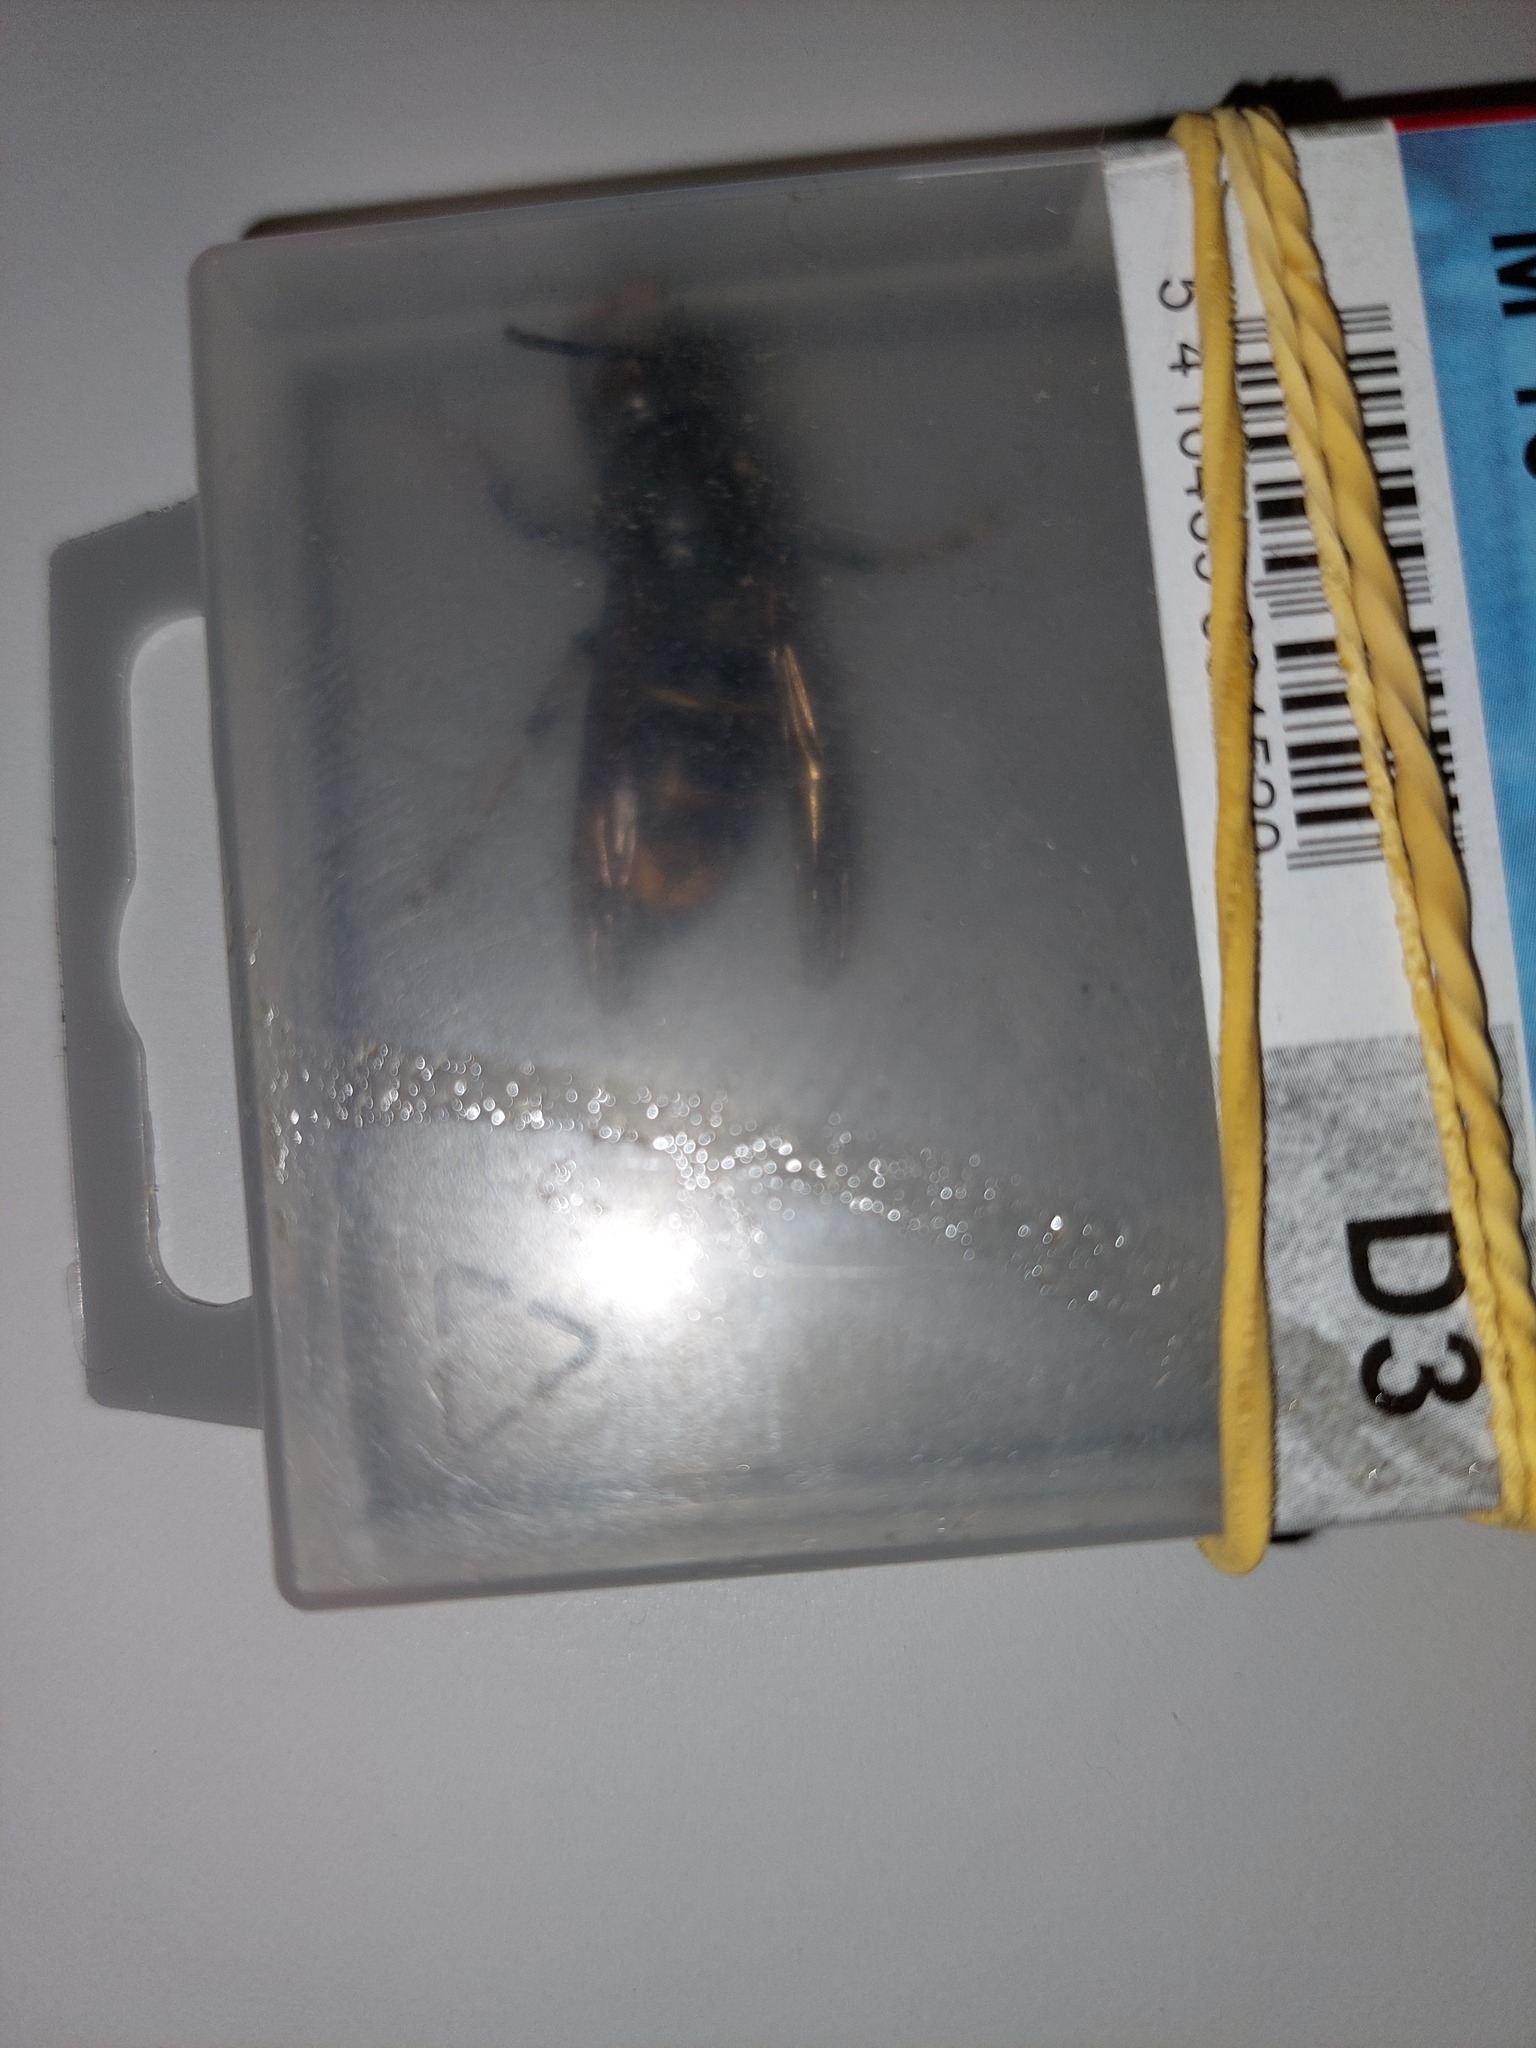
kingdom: Animalia
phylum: Arthropoda
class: Insecta
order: Hymenoptera
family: Vespidae
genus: Vespa
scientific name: Vespa velutina
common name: Asian hornet
